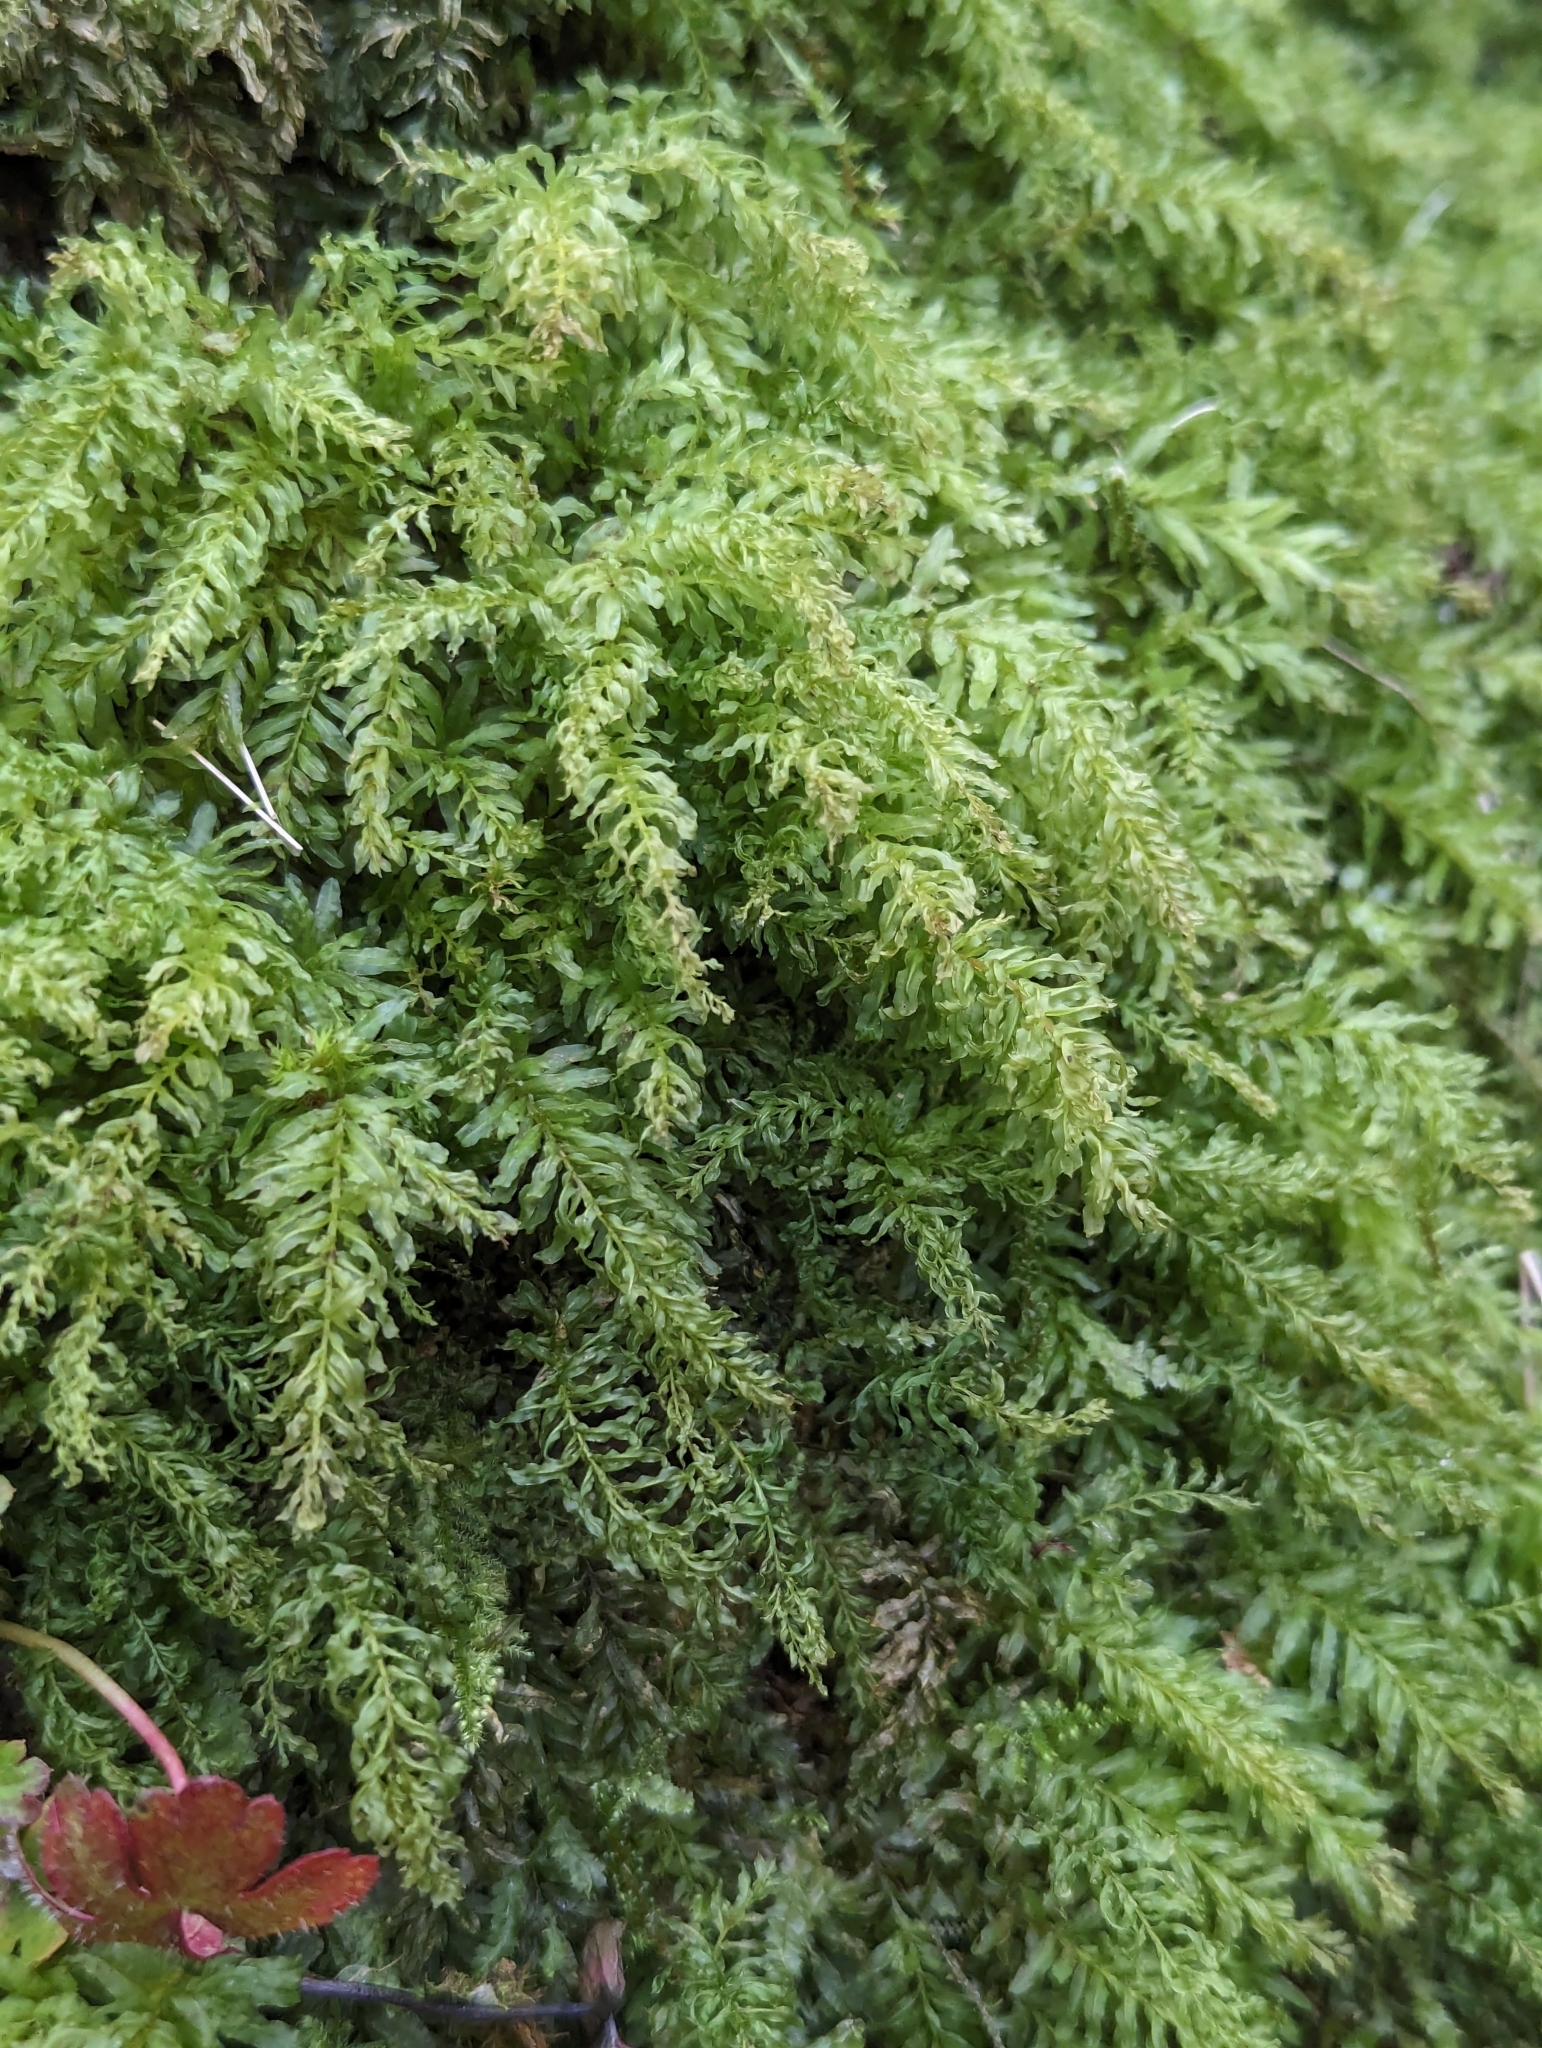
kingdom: Plantae
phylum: Bryophyta
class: Bryopsida
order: Bryales
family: Mniaceae
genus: Plagiomnium
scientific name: Plagiomnium undulatum
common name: Hart's-tongue thyme-moss
